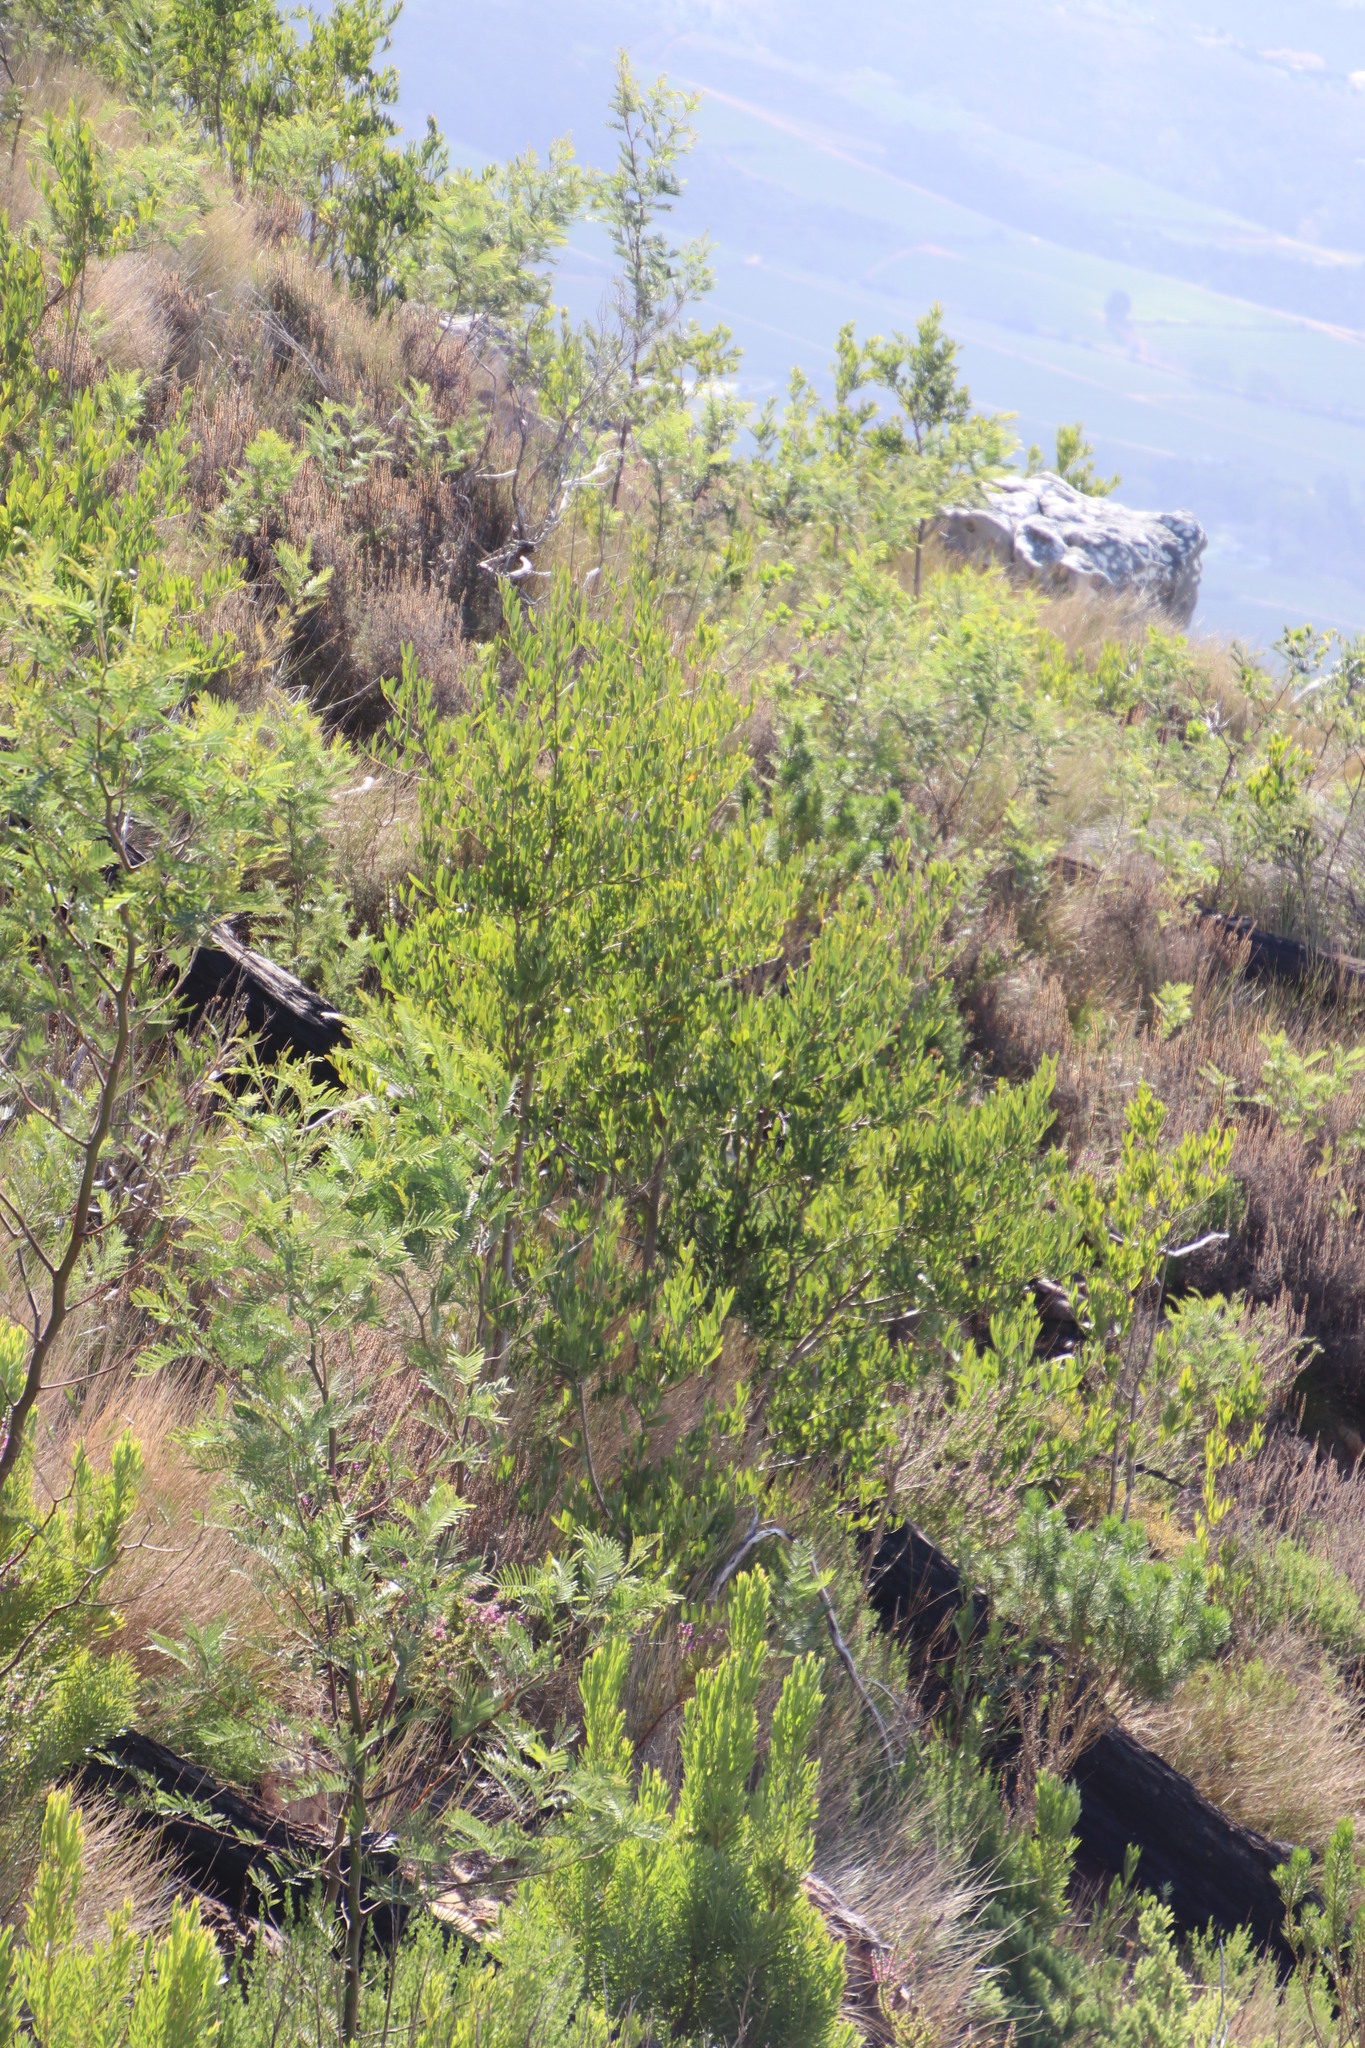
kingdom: Plantae
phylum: Tracheophyta
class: Magnoliopsida
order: Fabales
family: Fabaceae
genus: Acacia
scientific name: Acacia melanoxylon
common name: Blackwood
